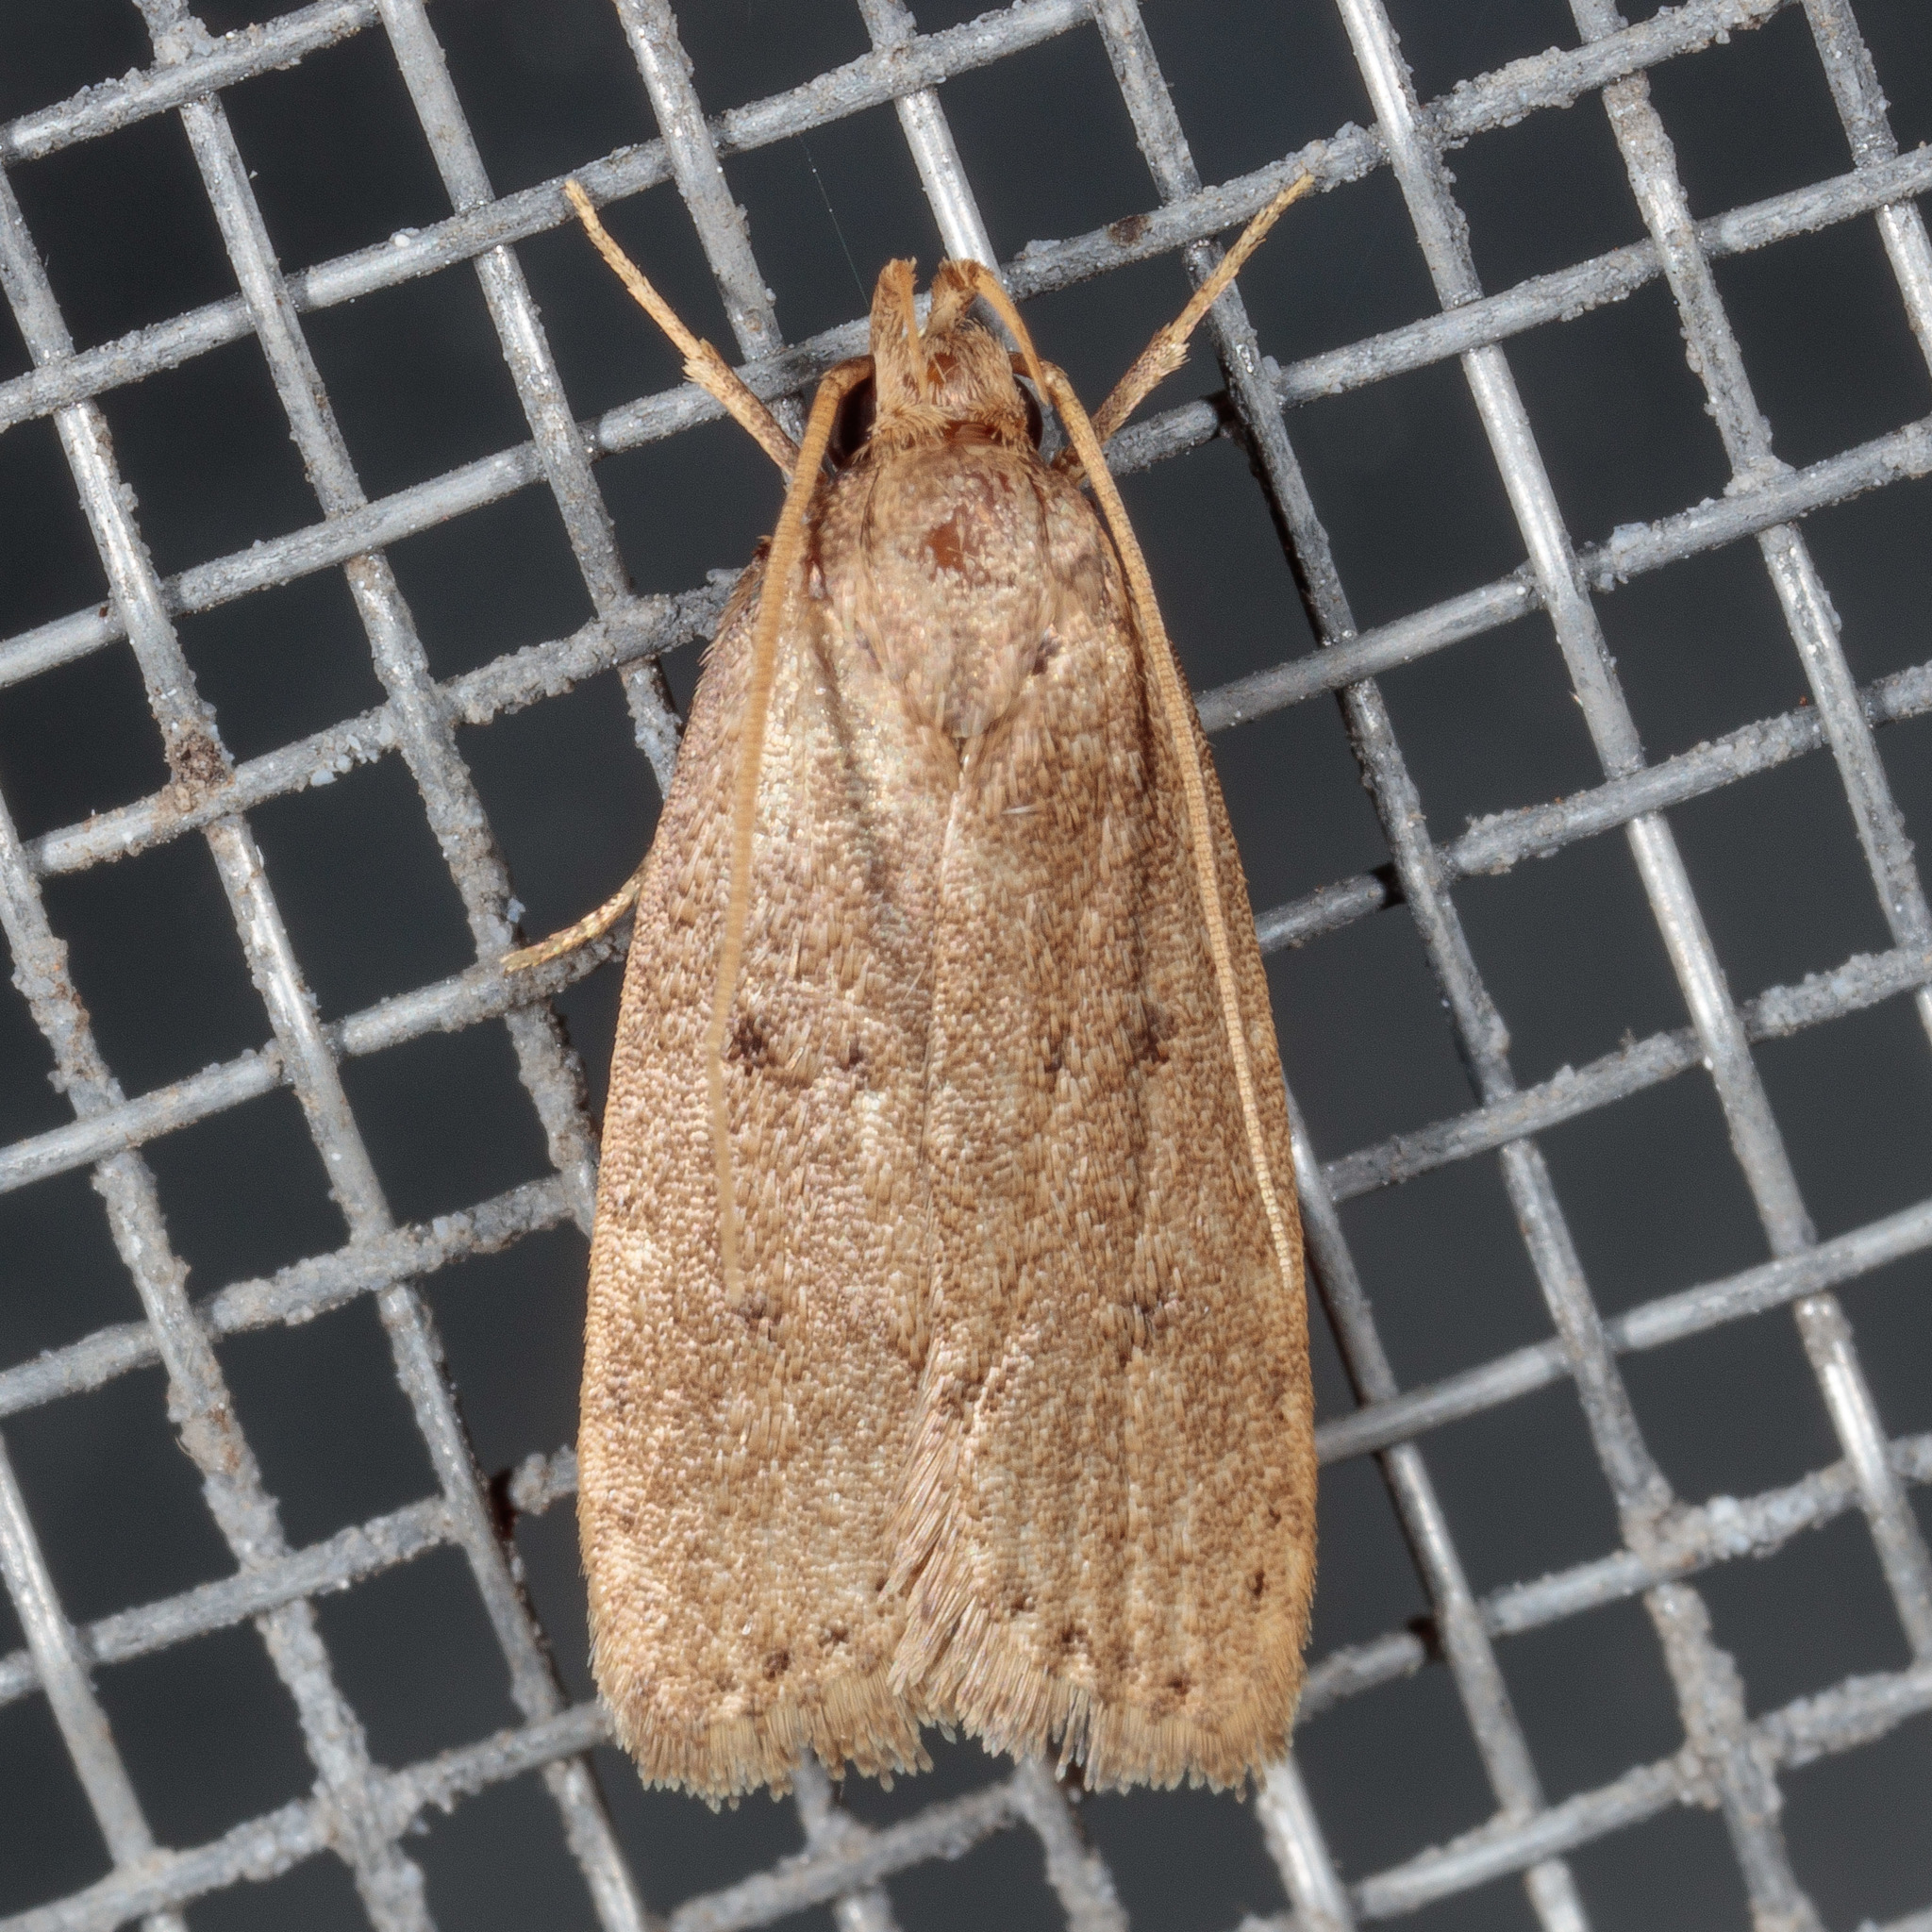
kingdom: Animalia
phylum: Arthropoda
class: Insecta
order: Lepidoptera
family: Autostichidae
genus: Autosticha
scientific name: Autosticha kyotensis
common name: Kyoto moth
